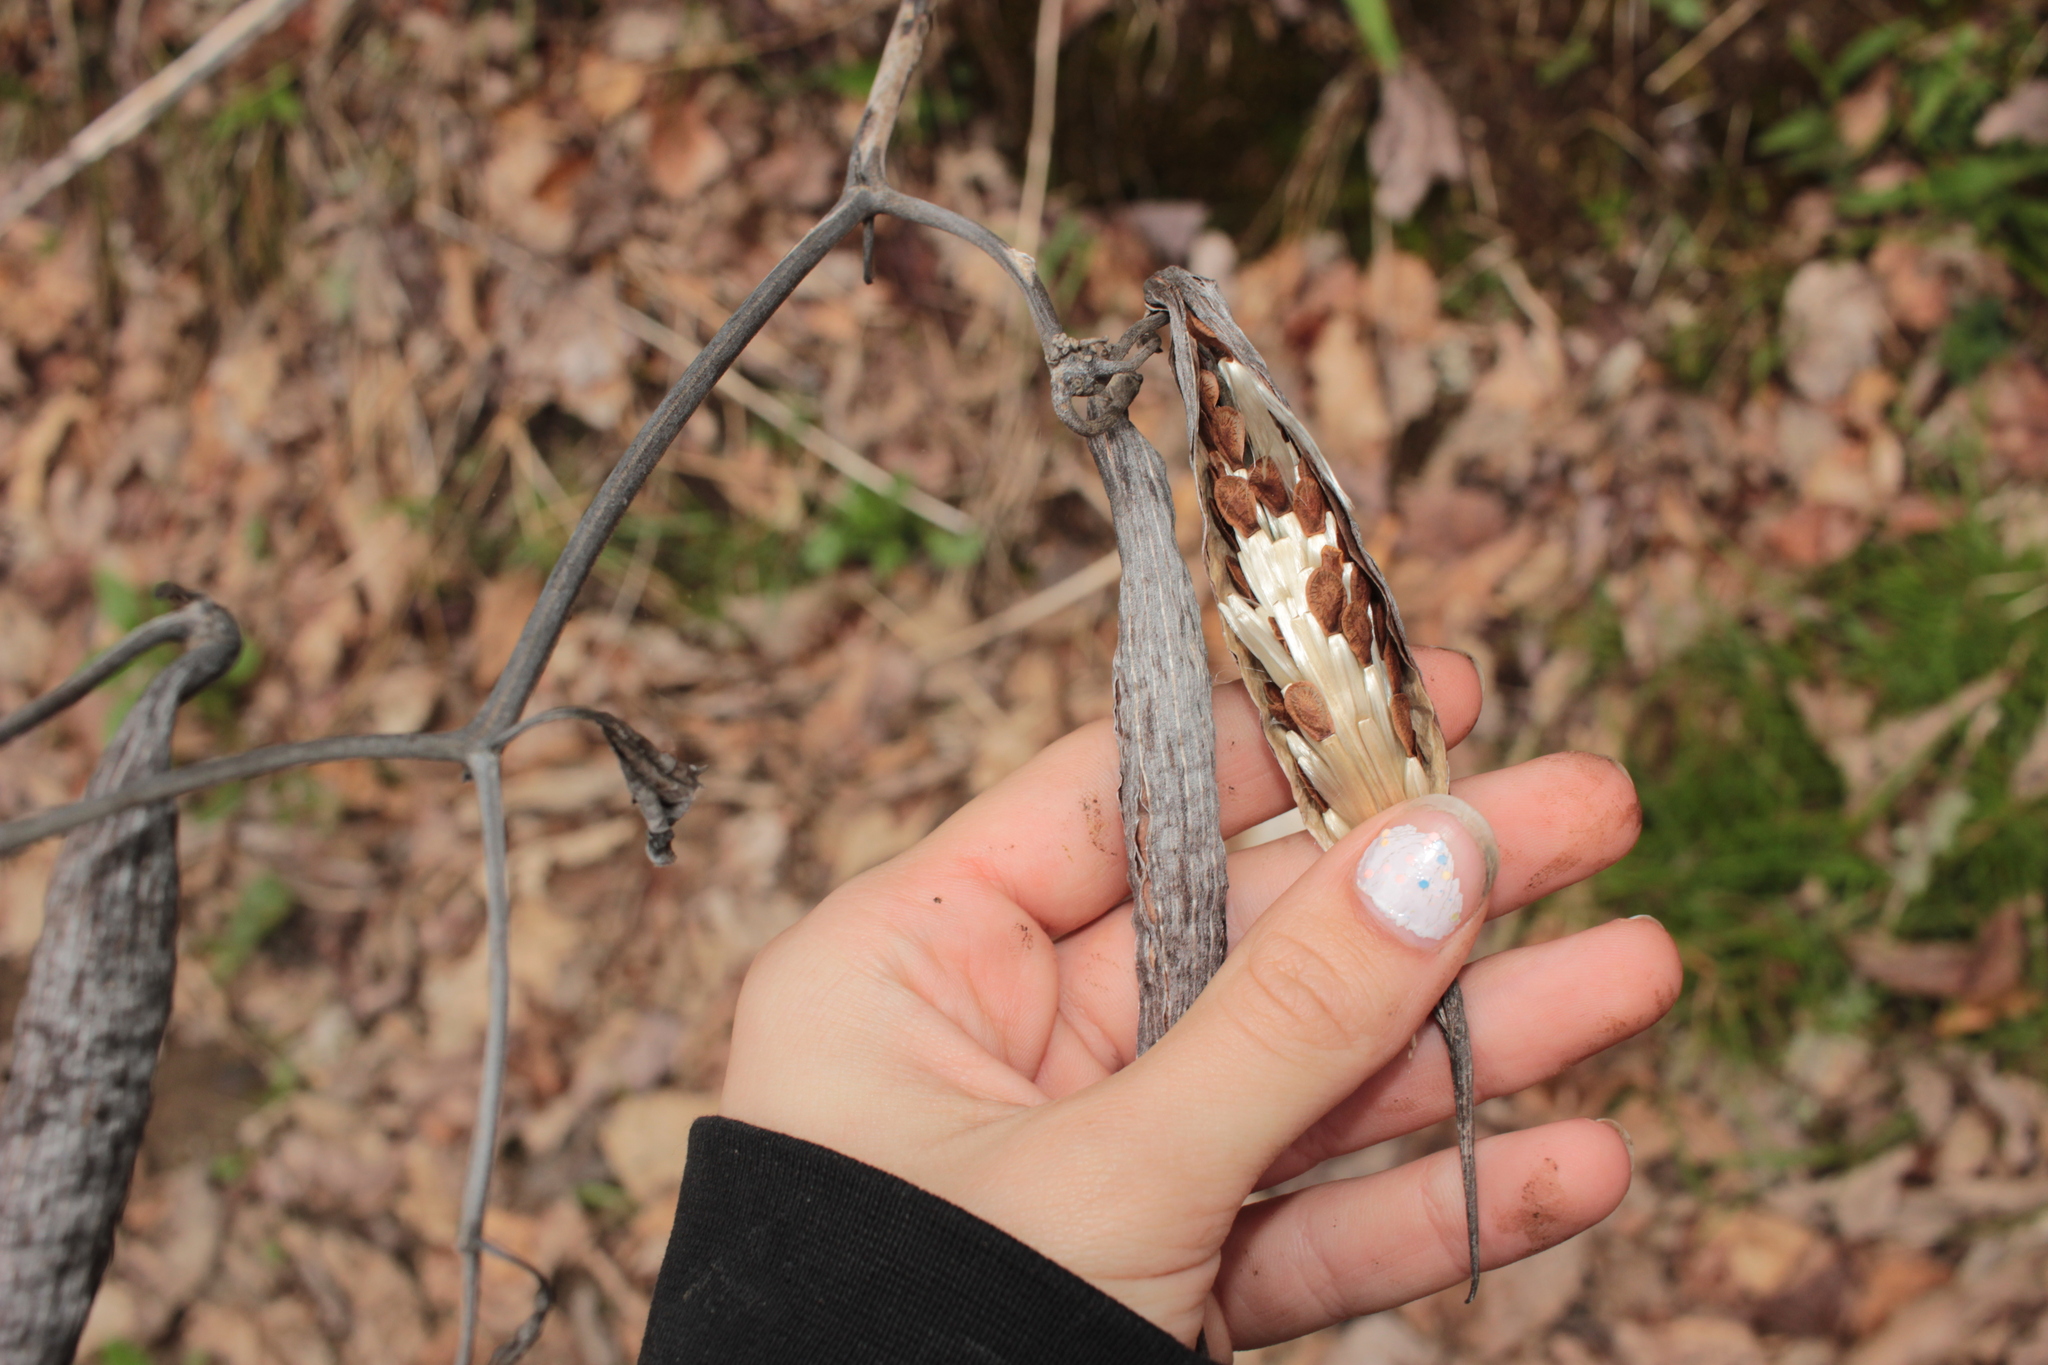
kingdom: Plantae
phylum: Tracheophyta
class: Magnoliopsida
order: Gentianales
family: Apocynaceae
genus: Asclepias
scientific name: Asclepias exaltata
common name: Poke milkweed
